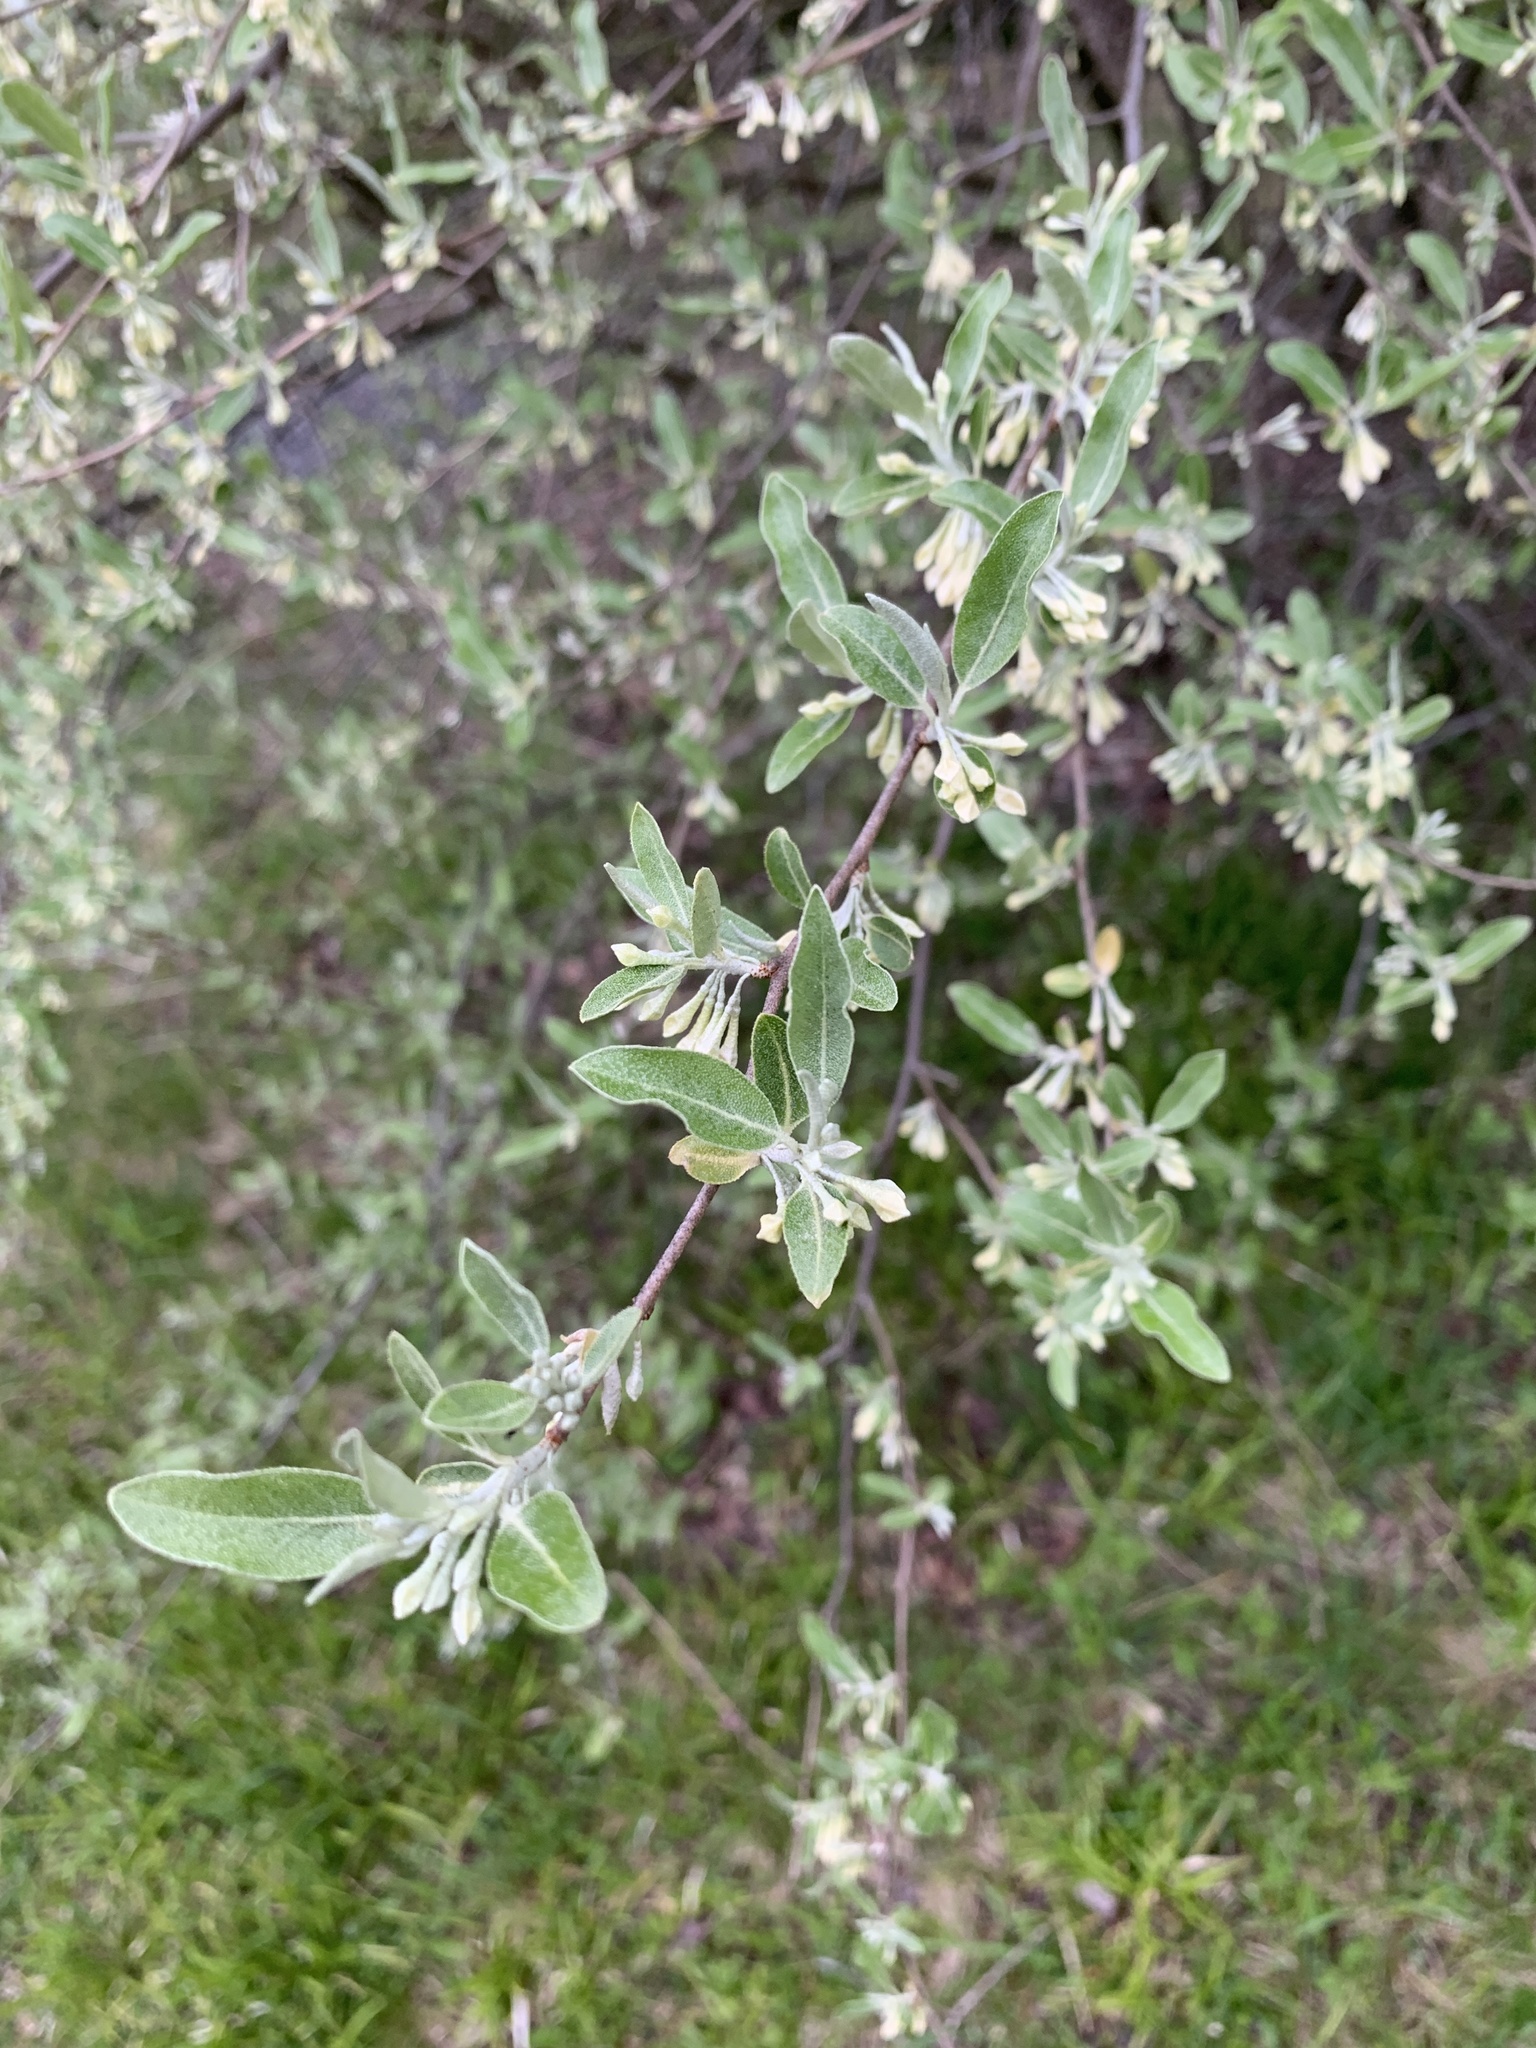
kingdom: Plantae
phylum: Tracheophyta
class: Magnoliopsida
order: Rosales
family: Elaeagnaceae
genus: Elaeagnus
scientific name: Elaeagnus umbellata
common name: Autumn olive
